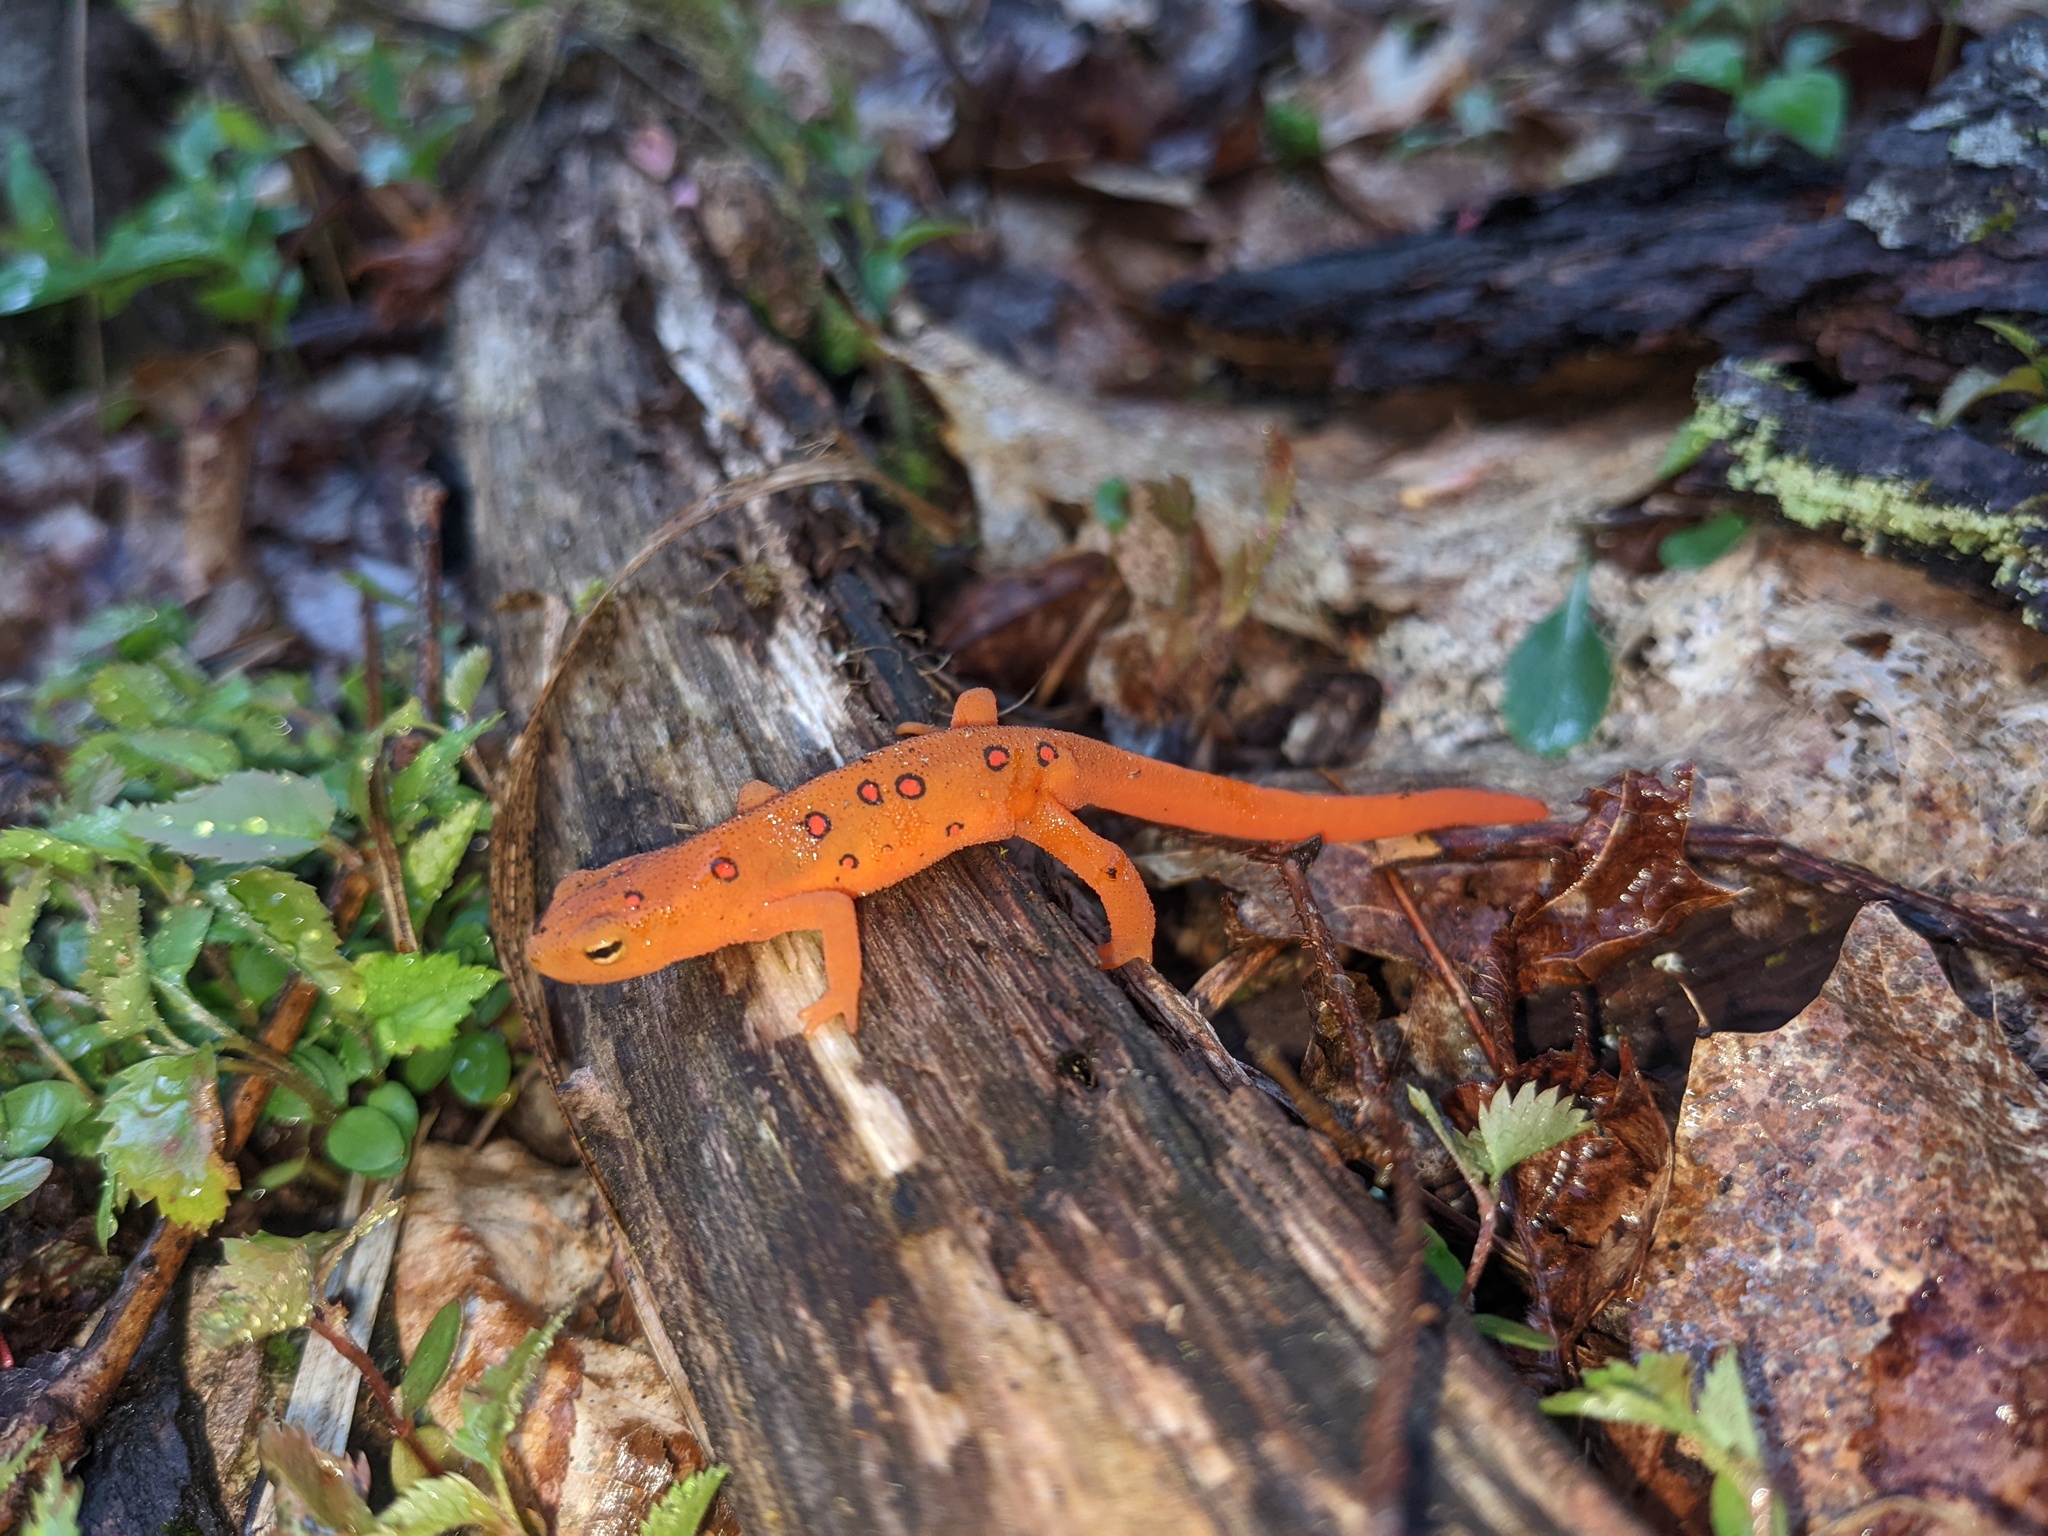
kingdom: Animalia
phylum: Chordata
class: Amphibia
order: Caudata
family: Salamandridae
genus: Notophthalmus
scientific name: Notophthalmus viridescens
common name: Eastern newt
